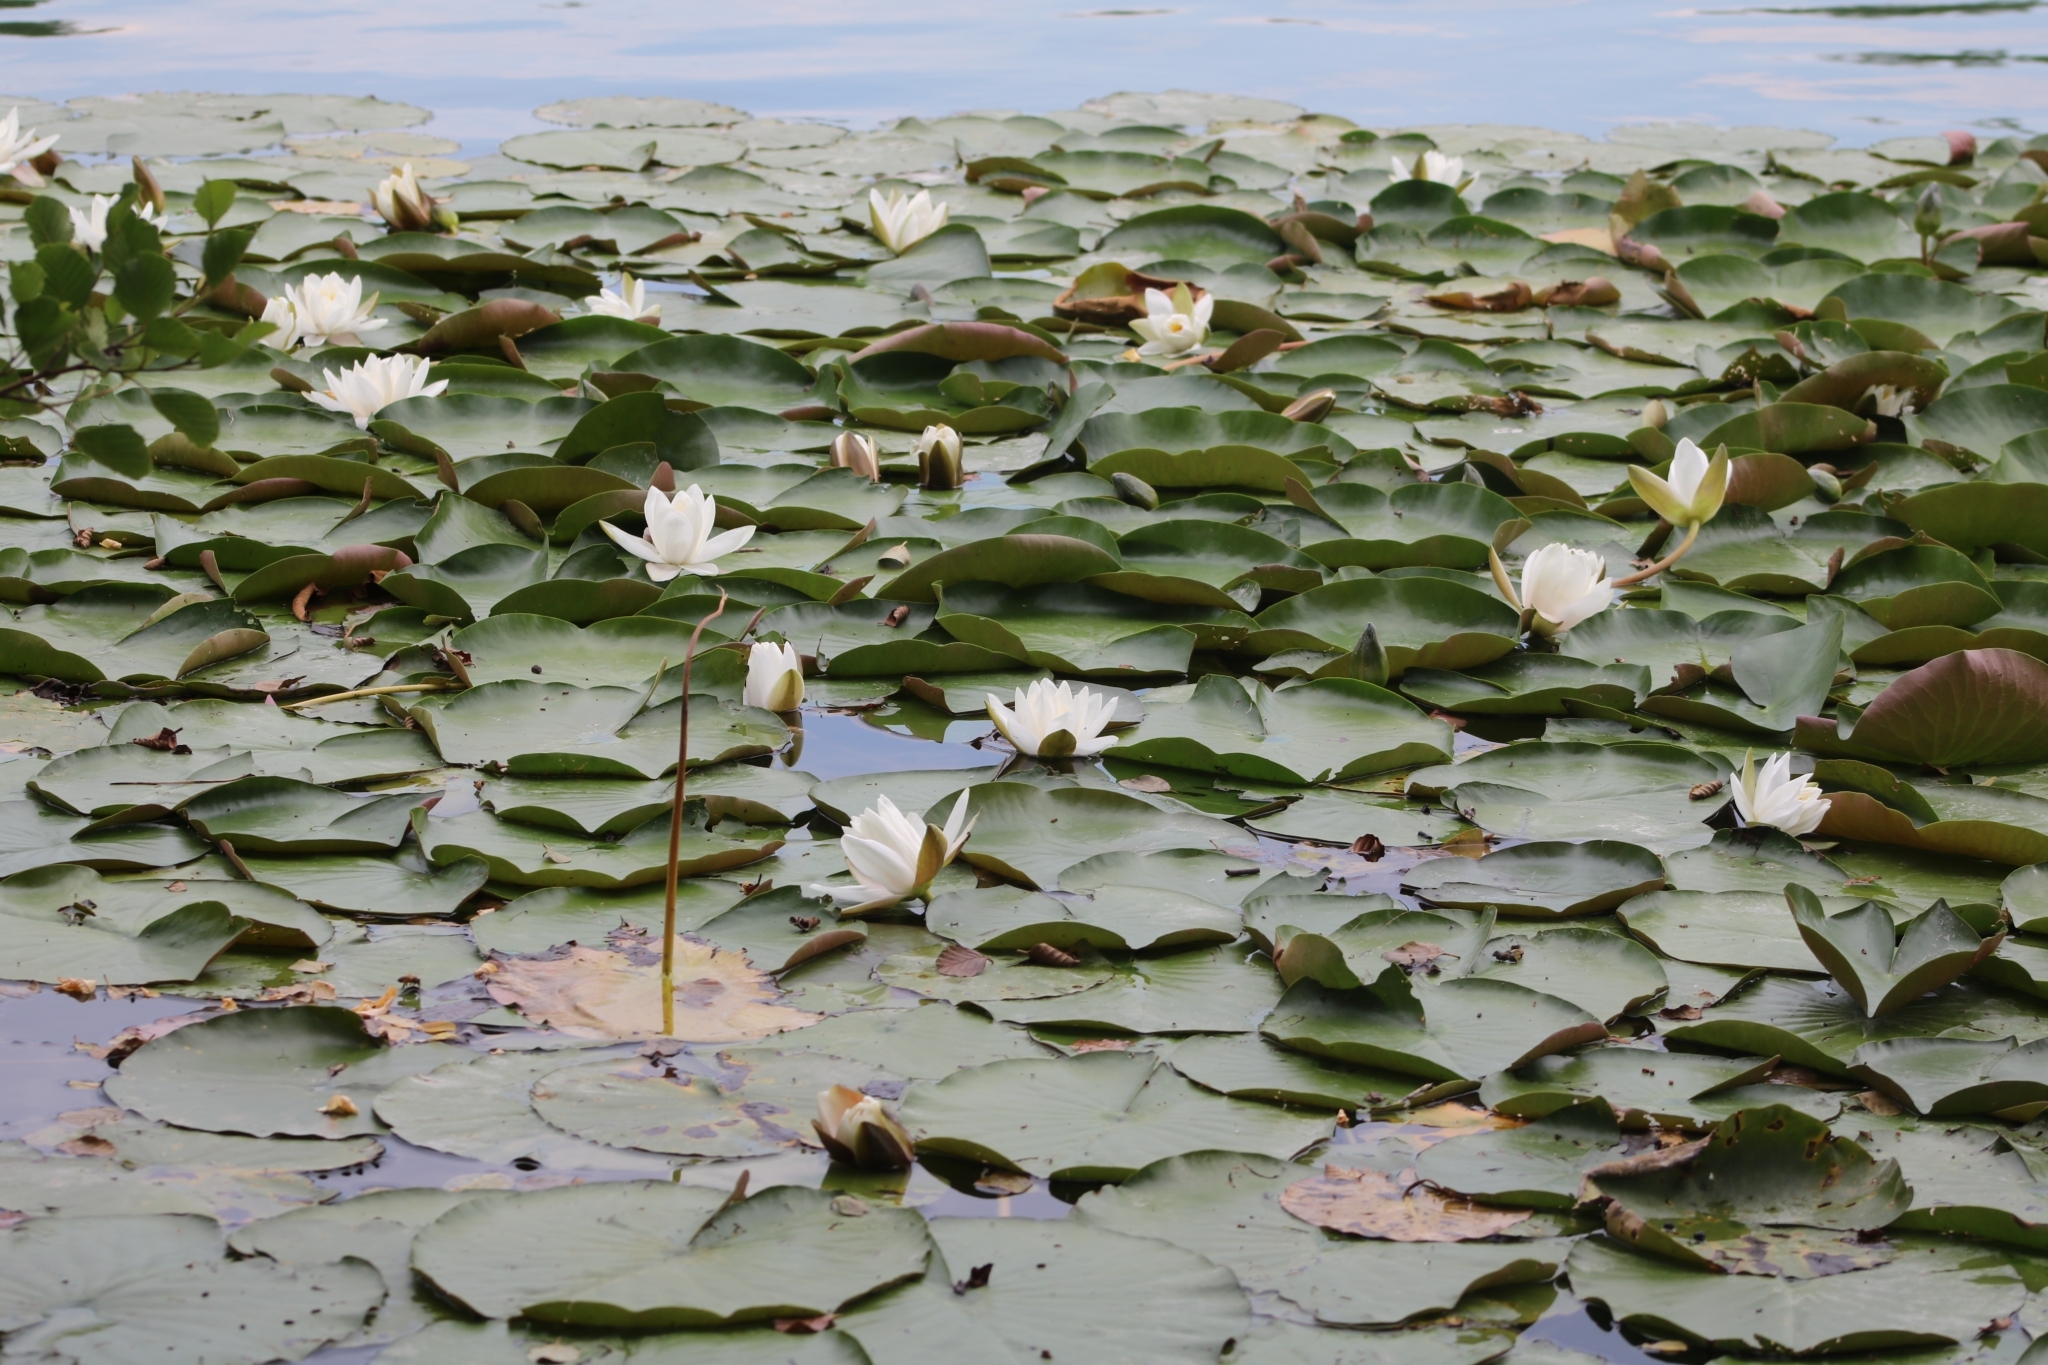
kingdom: Plantae
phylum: Tracheophyta
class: Magnoliopsida
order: Nymphaeales
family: Nymphaeaceae
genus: Nymphaea
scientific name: Nymphaea alba
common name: White water-lily
